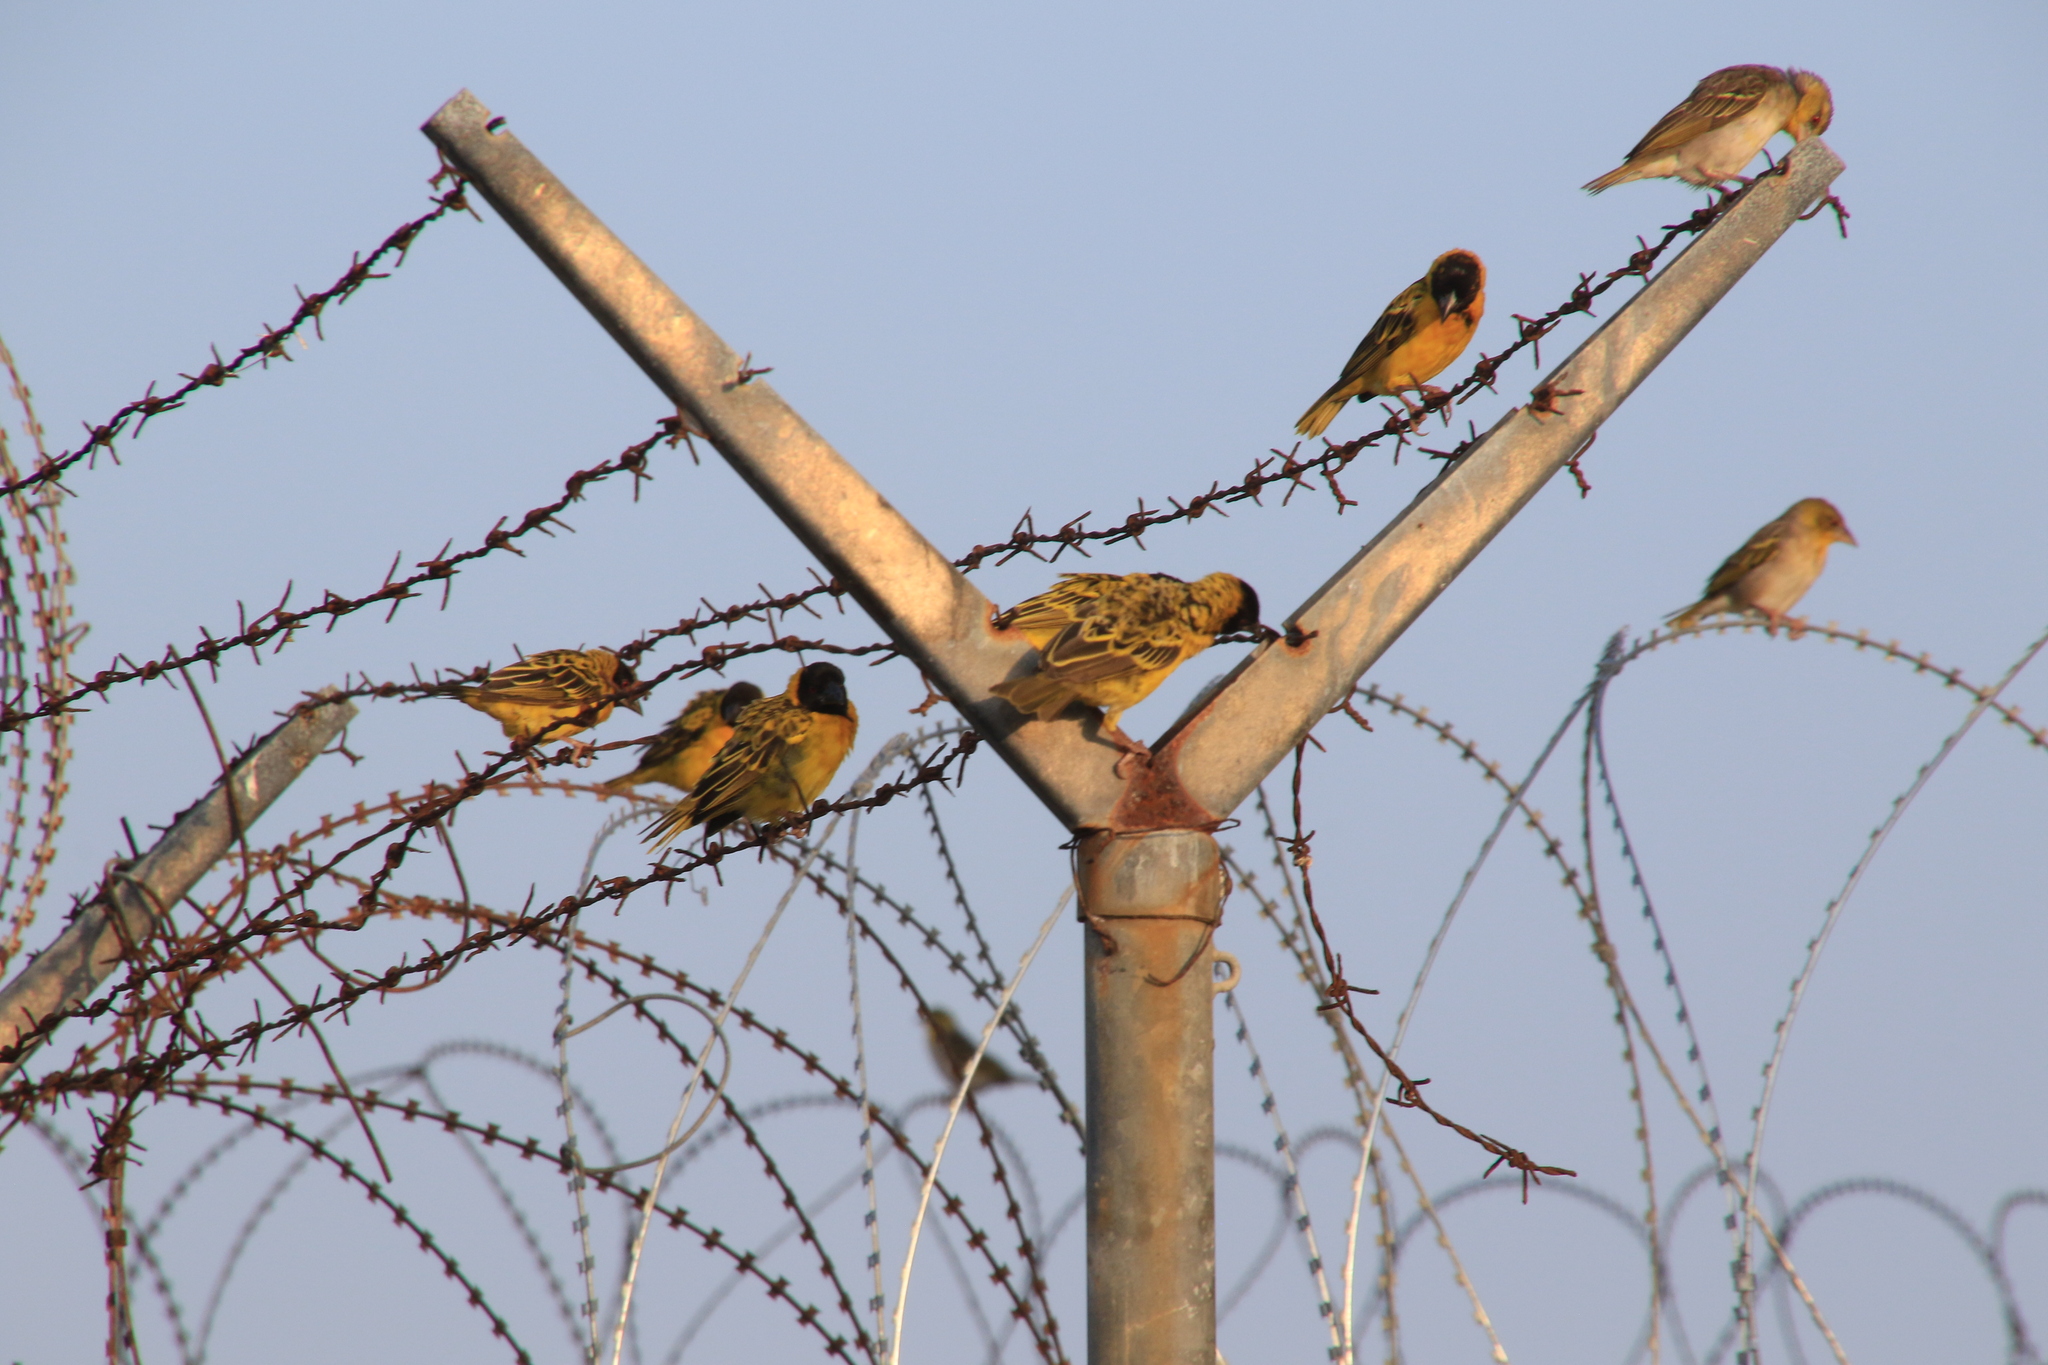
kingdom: Animalia
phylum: Chordata
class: Aves
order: Passeriformes
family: Ploceidae
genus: Ploceus
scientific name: Ploceus cucullatus
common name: Village weaver
